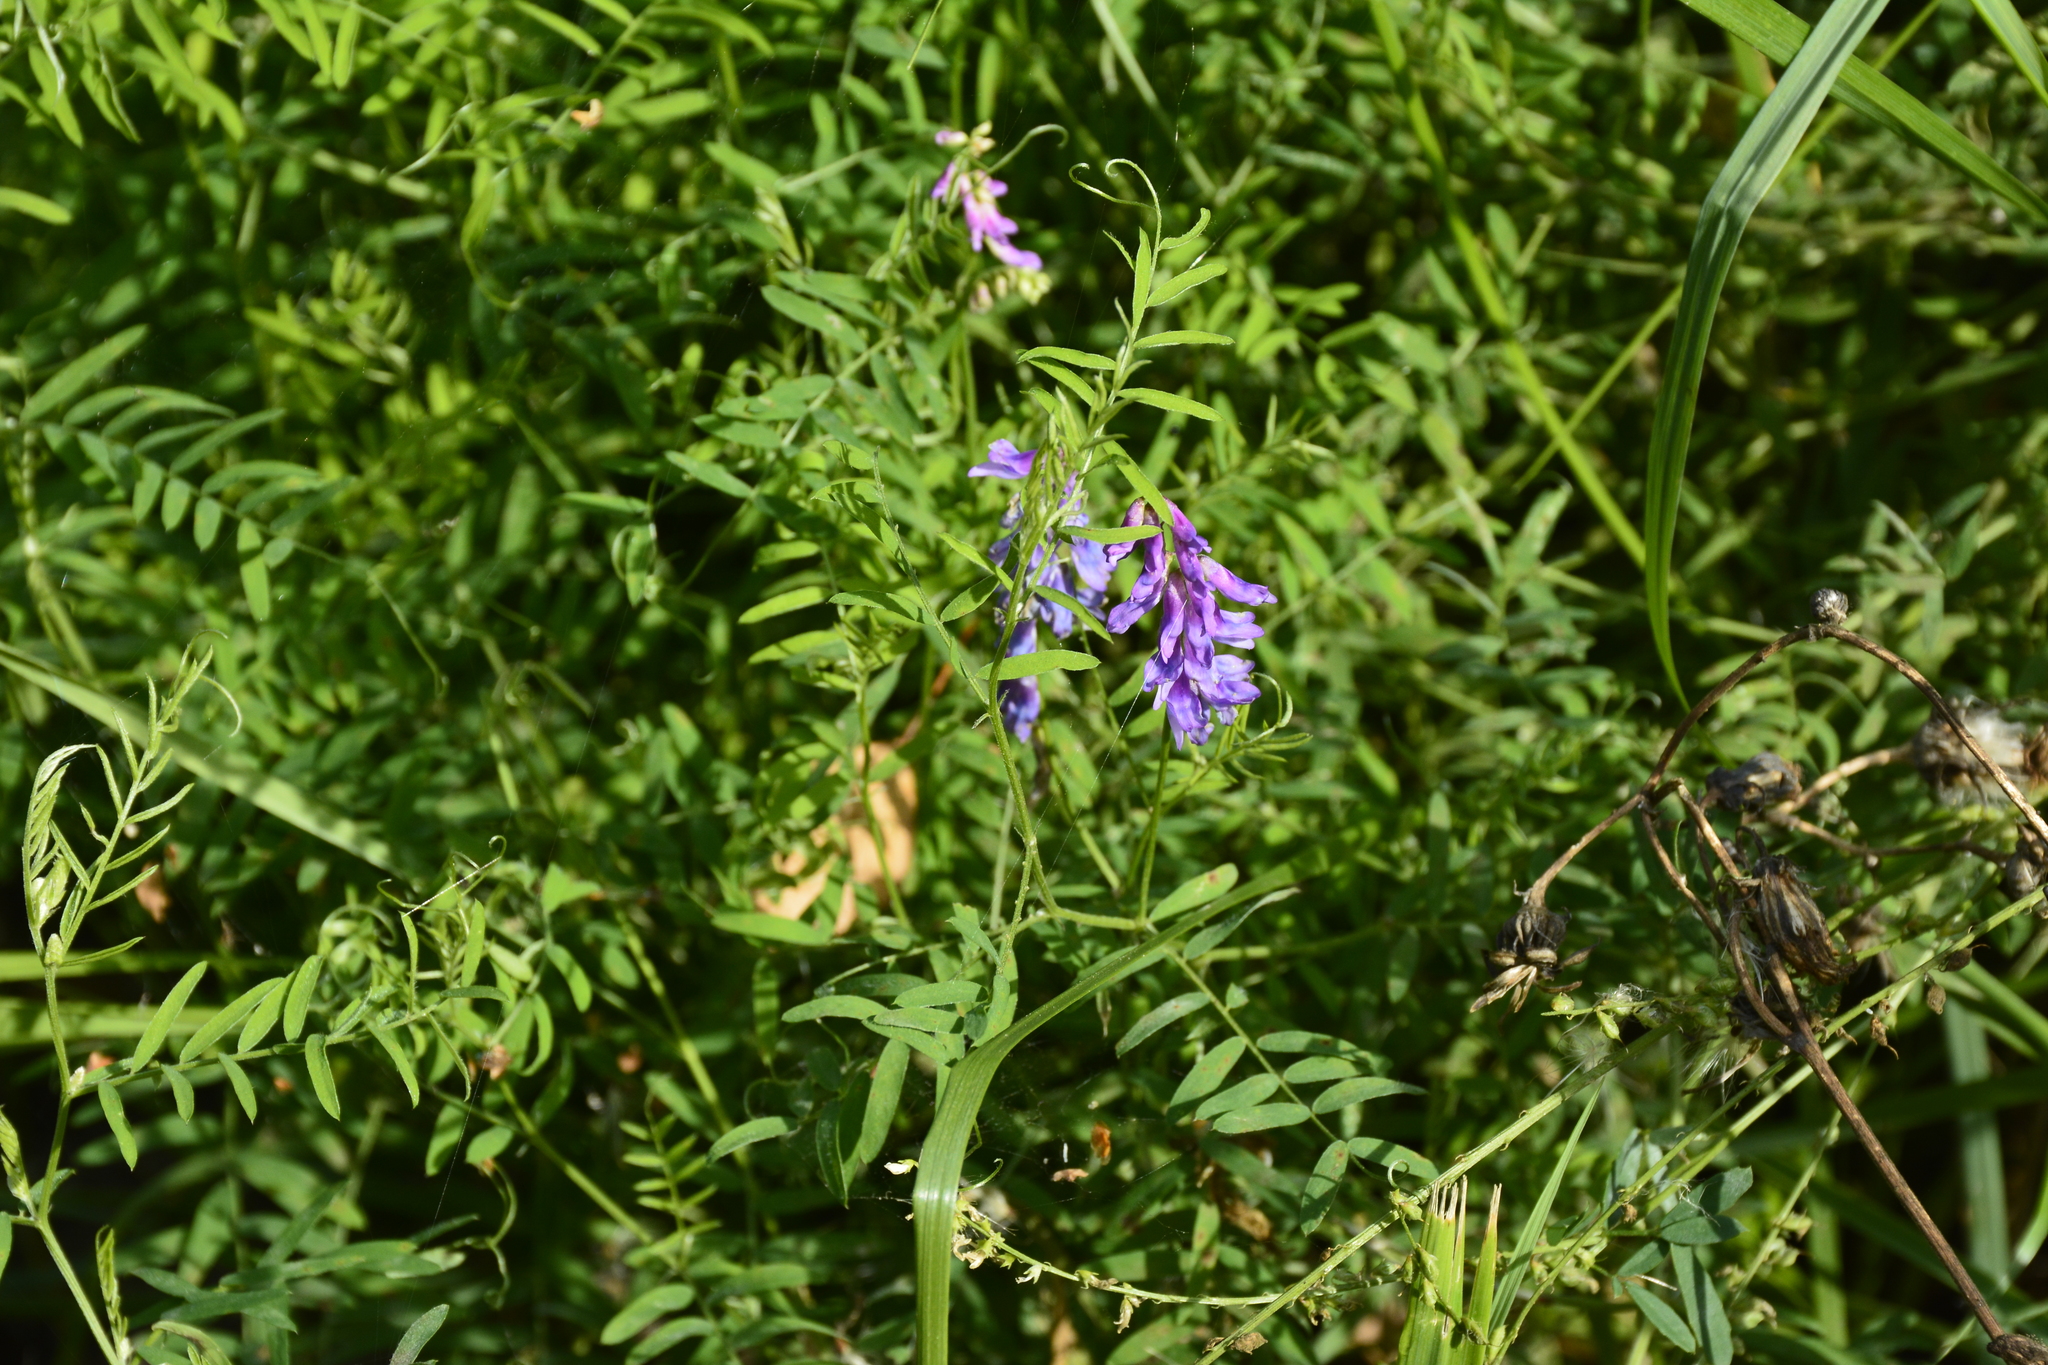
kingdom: Plantae
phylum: Tracheophyta
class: Magnoliopsida
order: Fabales
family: Fabaceae
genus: Vicia
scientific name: Vicia cracca
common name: Bird vetch
